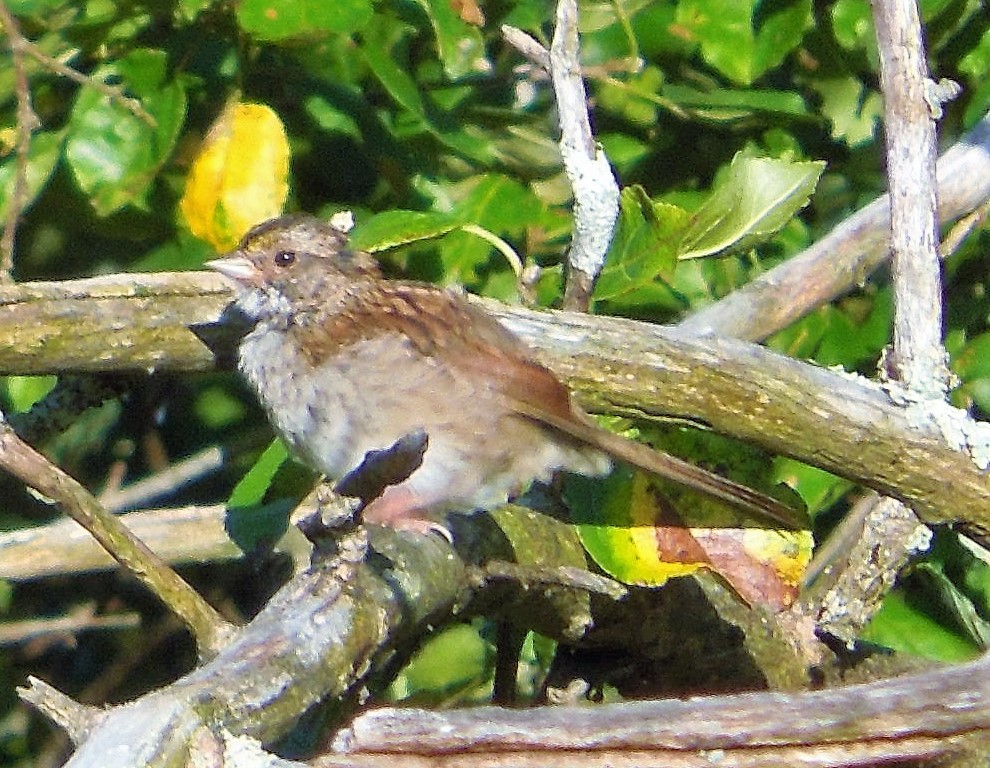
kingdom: Animalia
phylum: Chordata
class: Aves
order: Passeriformes
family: Passerellidae
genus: Zonotrichia
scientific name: Zonotrichia albicollis
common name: White-throated sparrow
